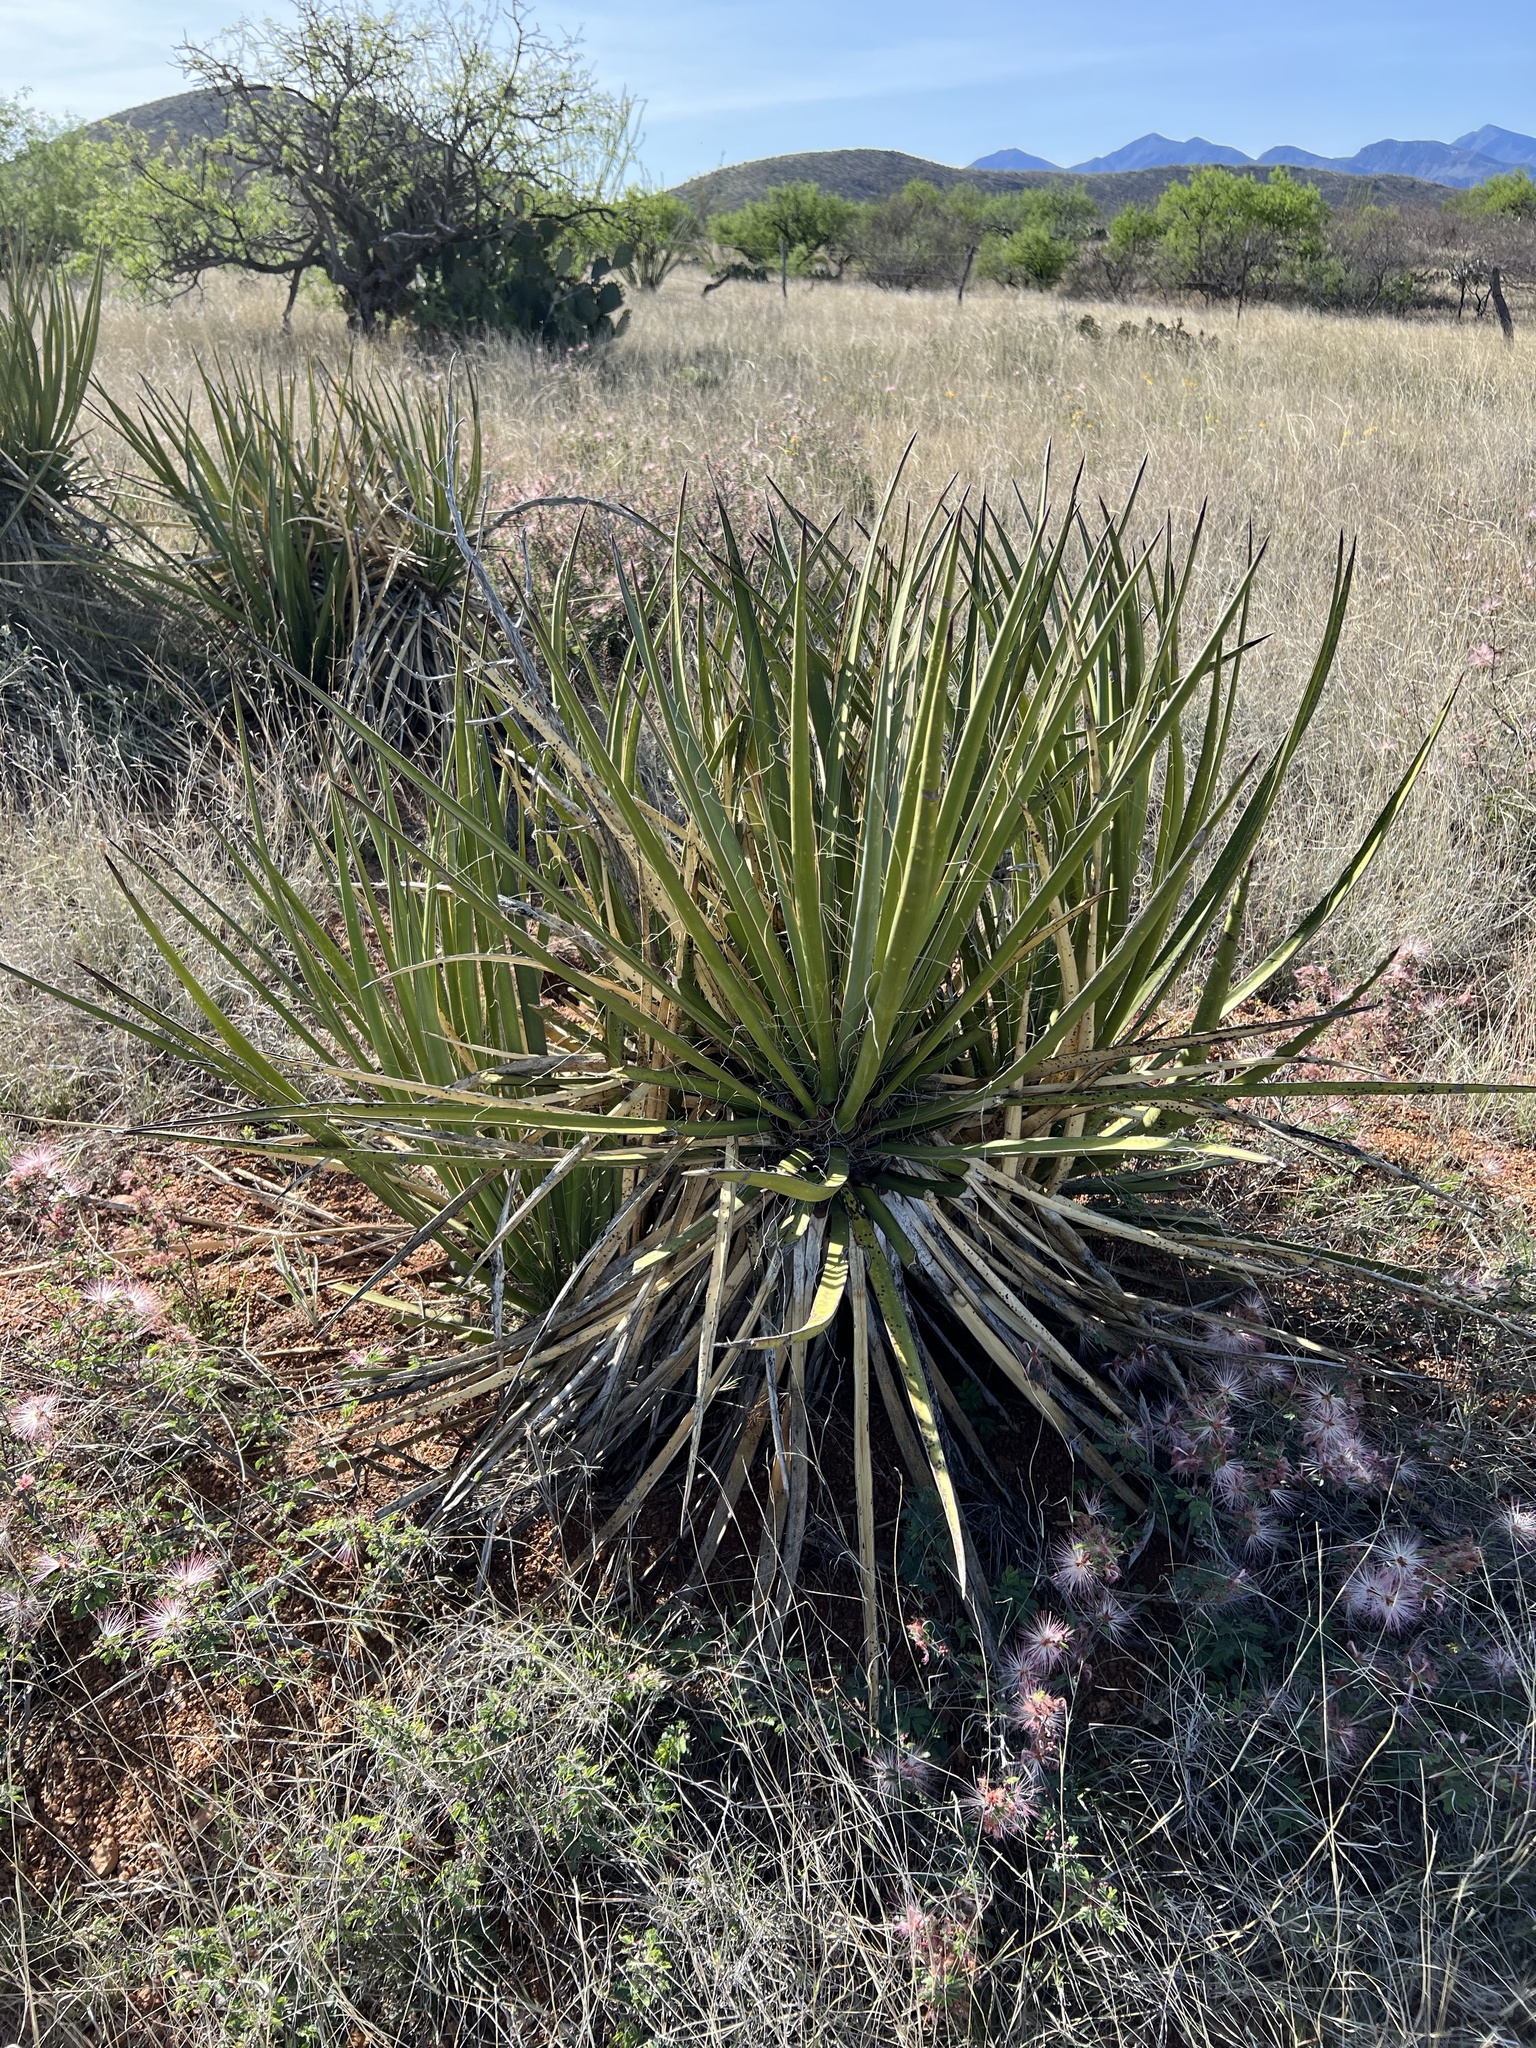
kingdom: Plantae
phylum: Tracheophyta
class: Liliopsida
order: Asparagales
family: Asparagaceae
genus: Yucca
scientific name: Yucca baccata
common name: Banana yucca
